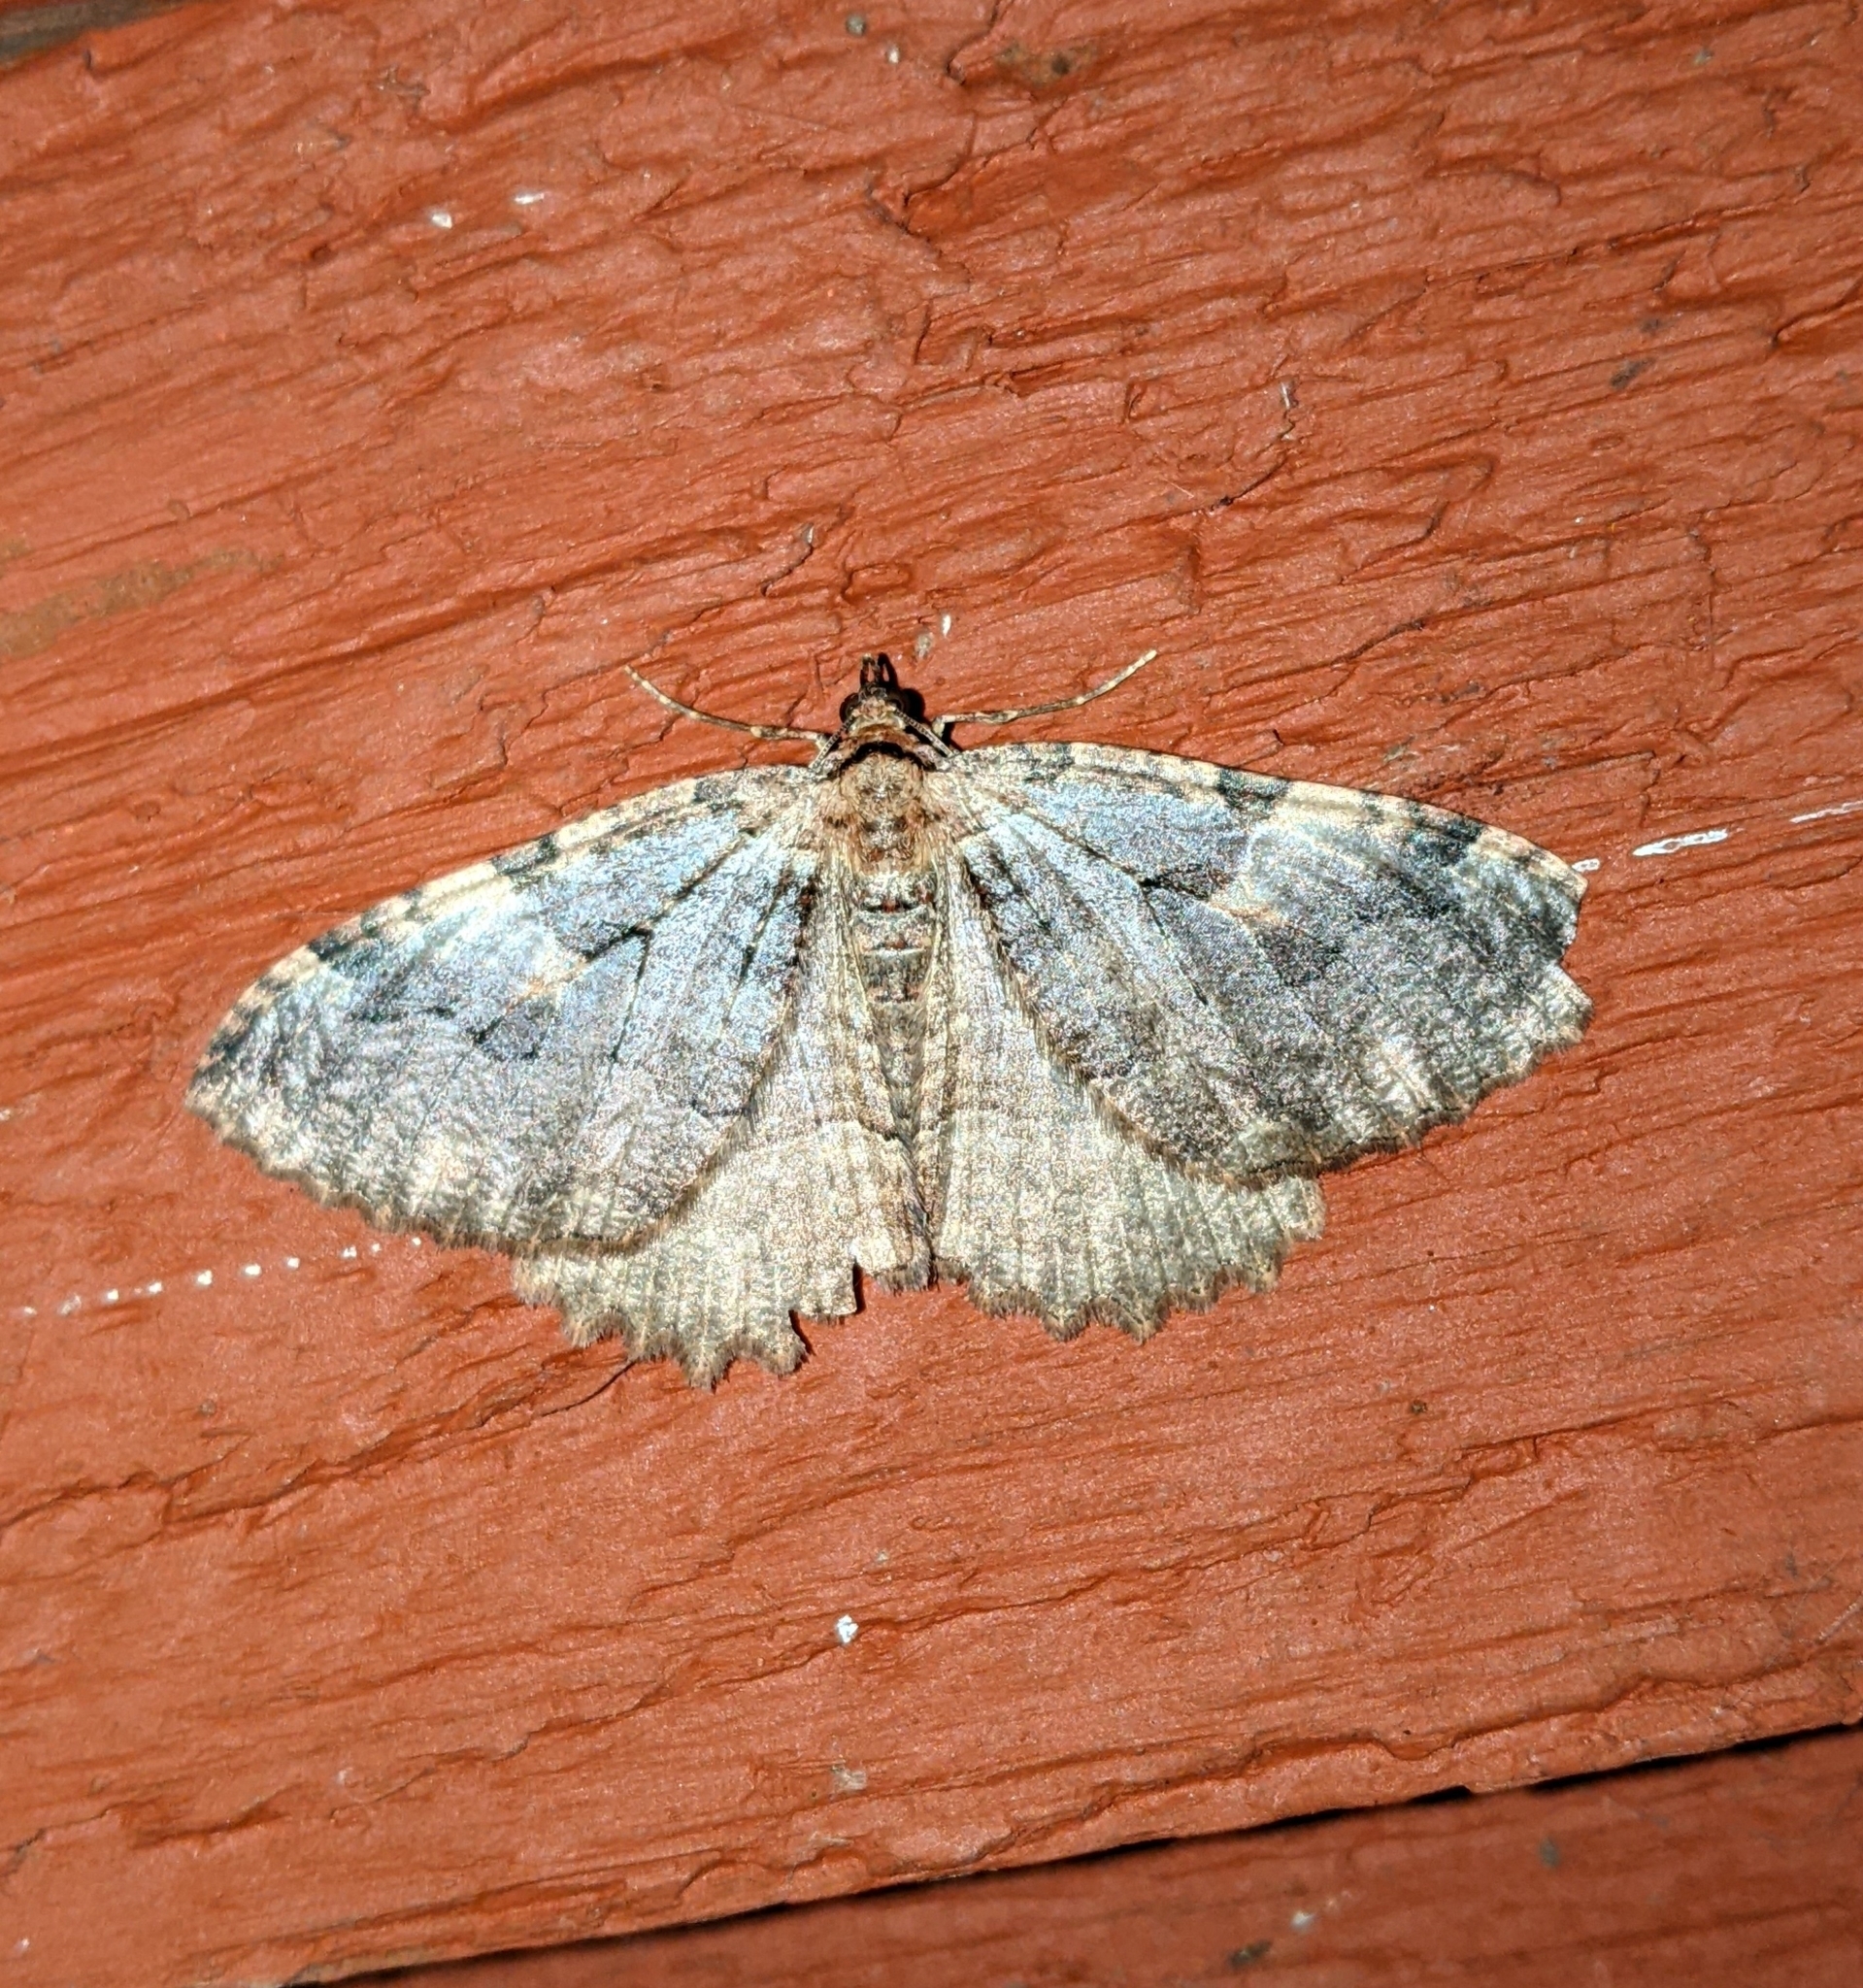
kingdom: Animalia
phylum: Arthropoda
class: Insecta
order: Lepidoptera
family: Geometridae
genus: Triphosa
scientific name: Triphosa haesitata
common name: Tissue moth
